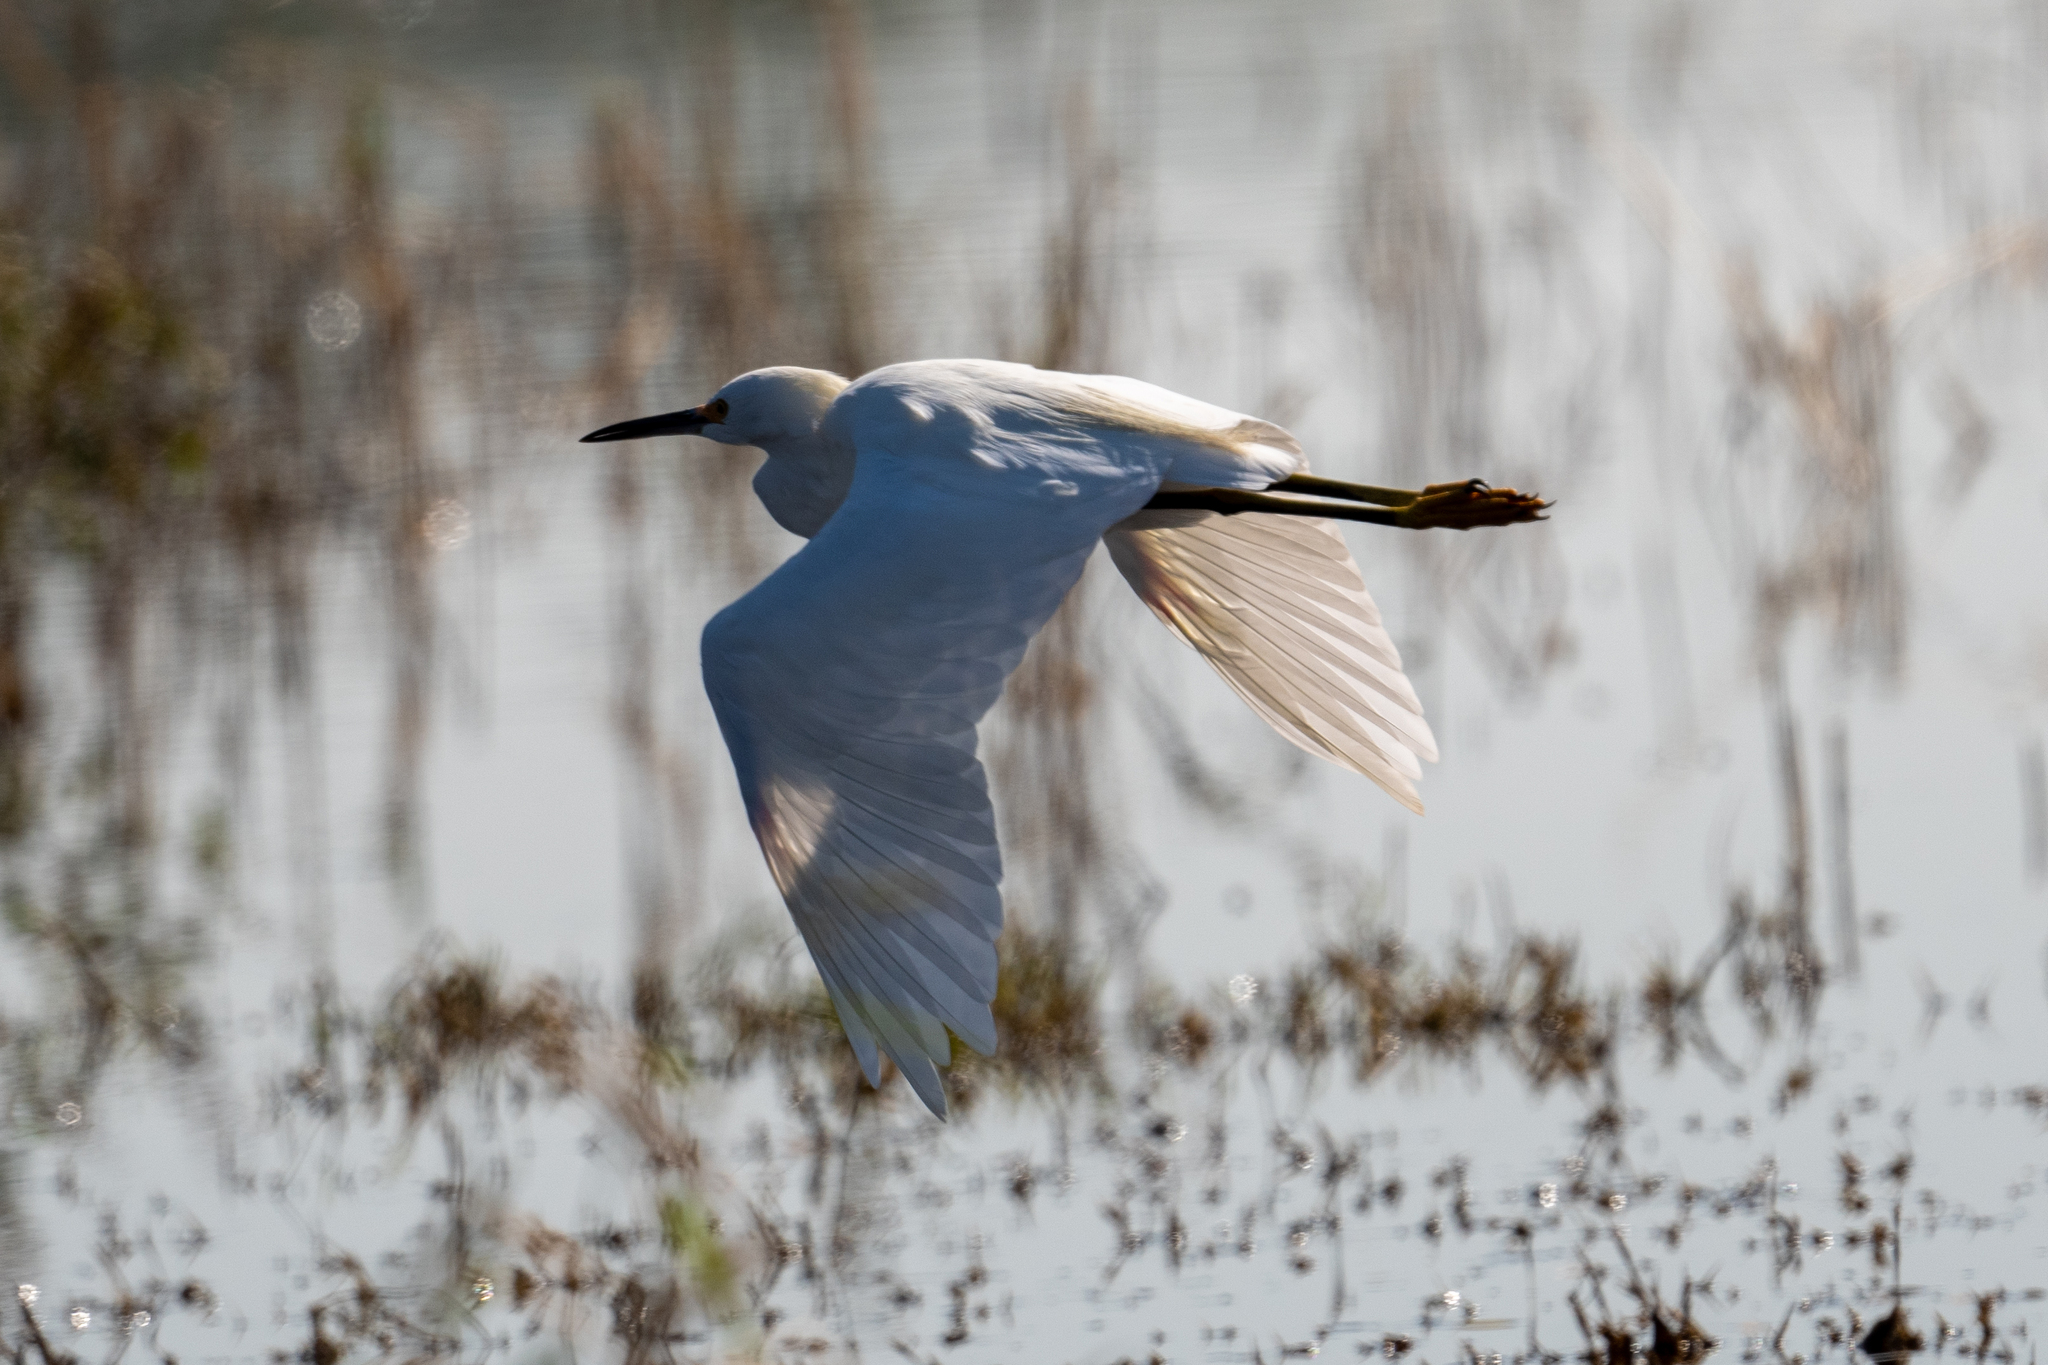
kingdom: Animalia
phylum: Chordata
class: Aves
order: Pelecaniformes
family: Ardeidae
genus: Egretta
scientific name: Egretta thula
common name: Snowy egret
